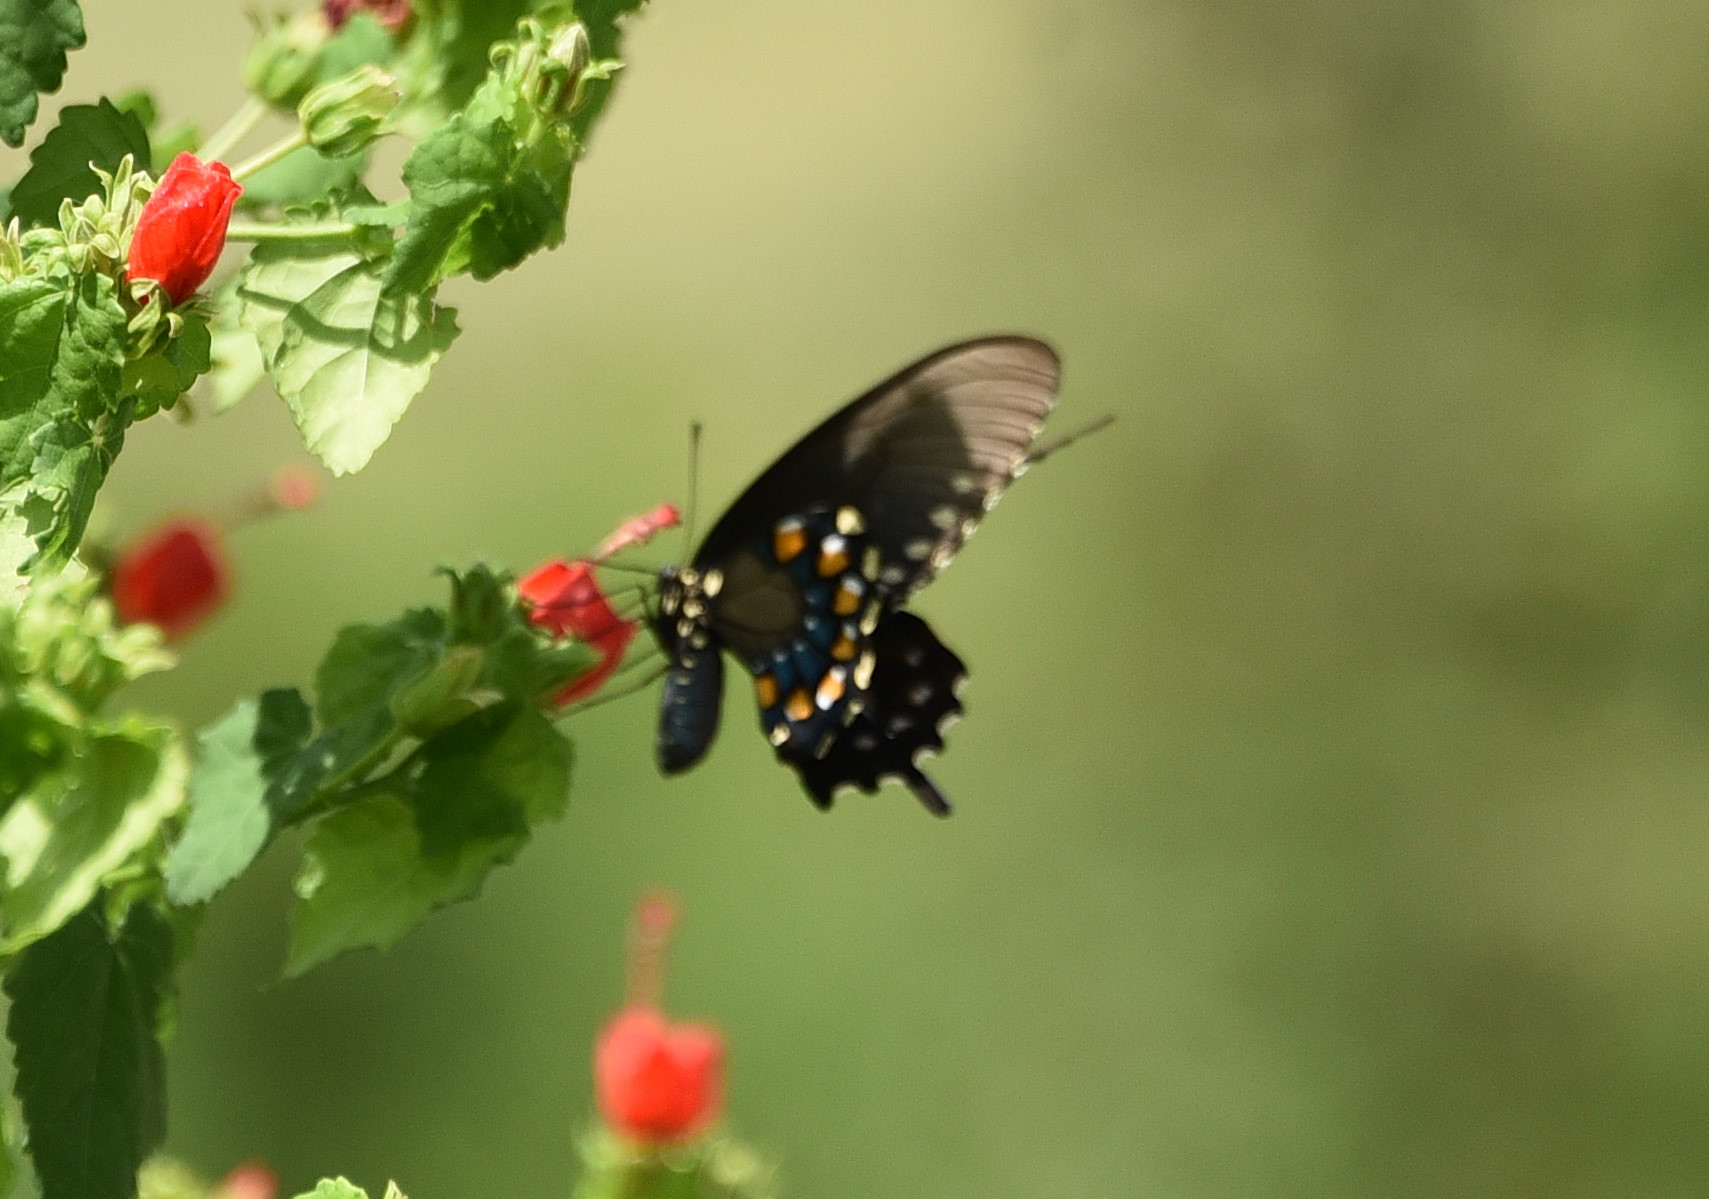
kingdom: Animalia
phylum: Arthropoda
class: Insecta
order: Lepidoptera
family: Papilionidae
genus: Battus
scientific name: Battus philenor
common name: Pipevine swallowtail
